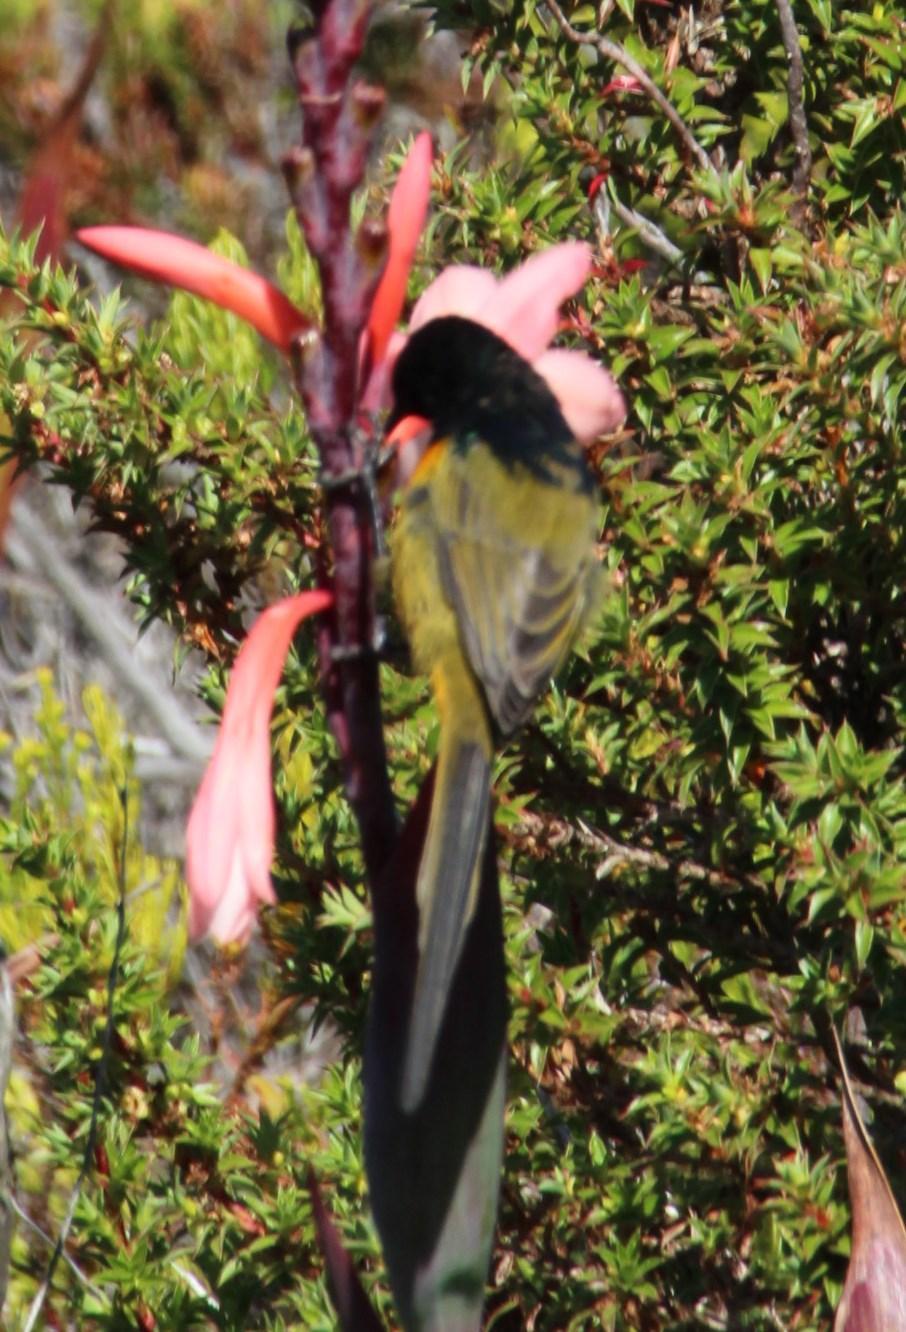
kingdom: Animalia
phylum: Chordata
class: Aves
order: Passeriformes
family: Nectariniidae
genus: Anthobaphes
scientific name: Anthobaphes violacea
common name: Orange-breasted sunbird
